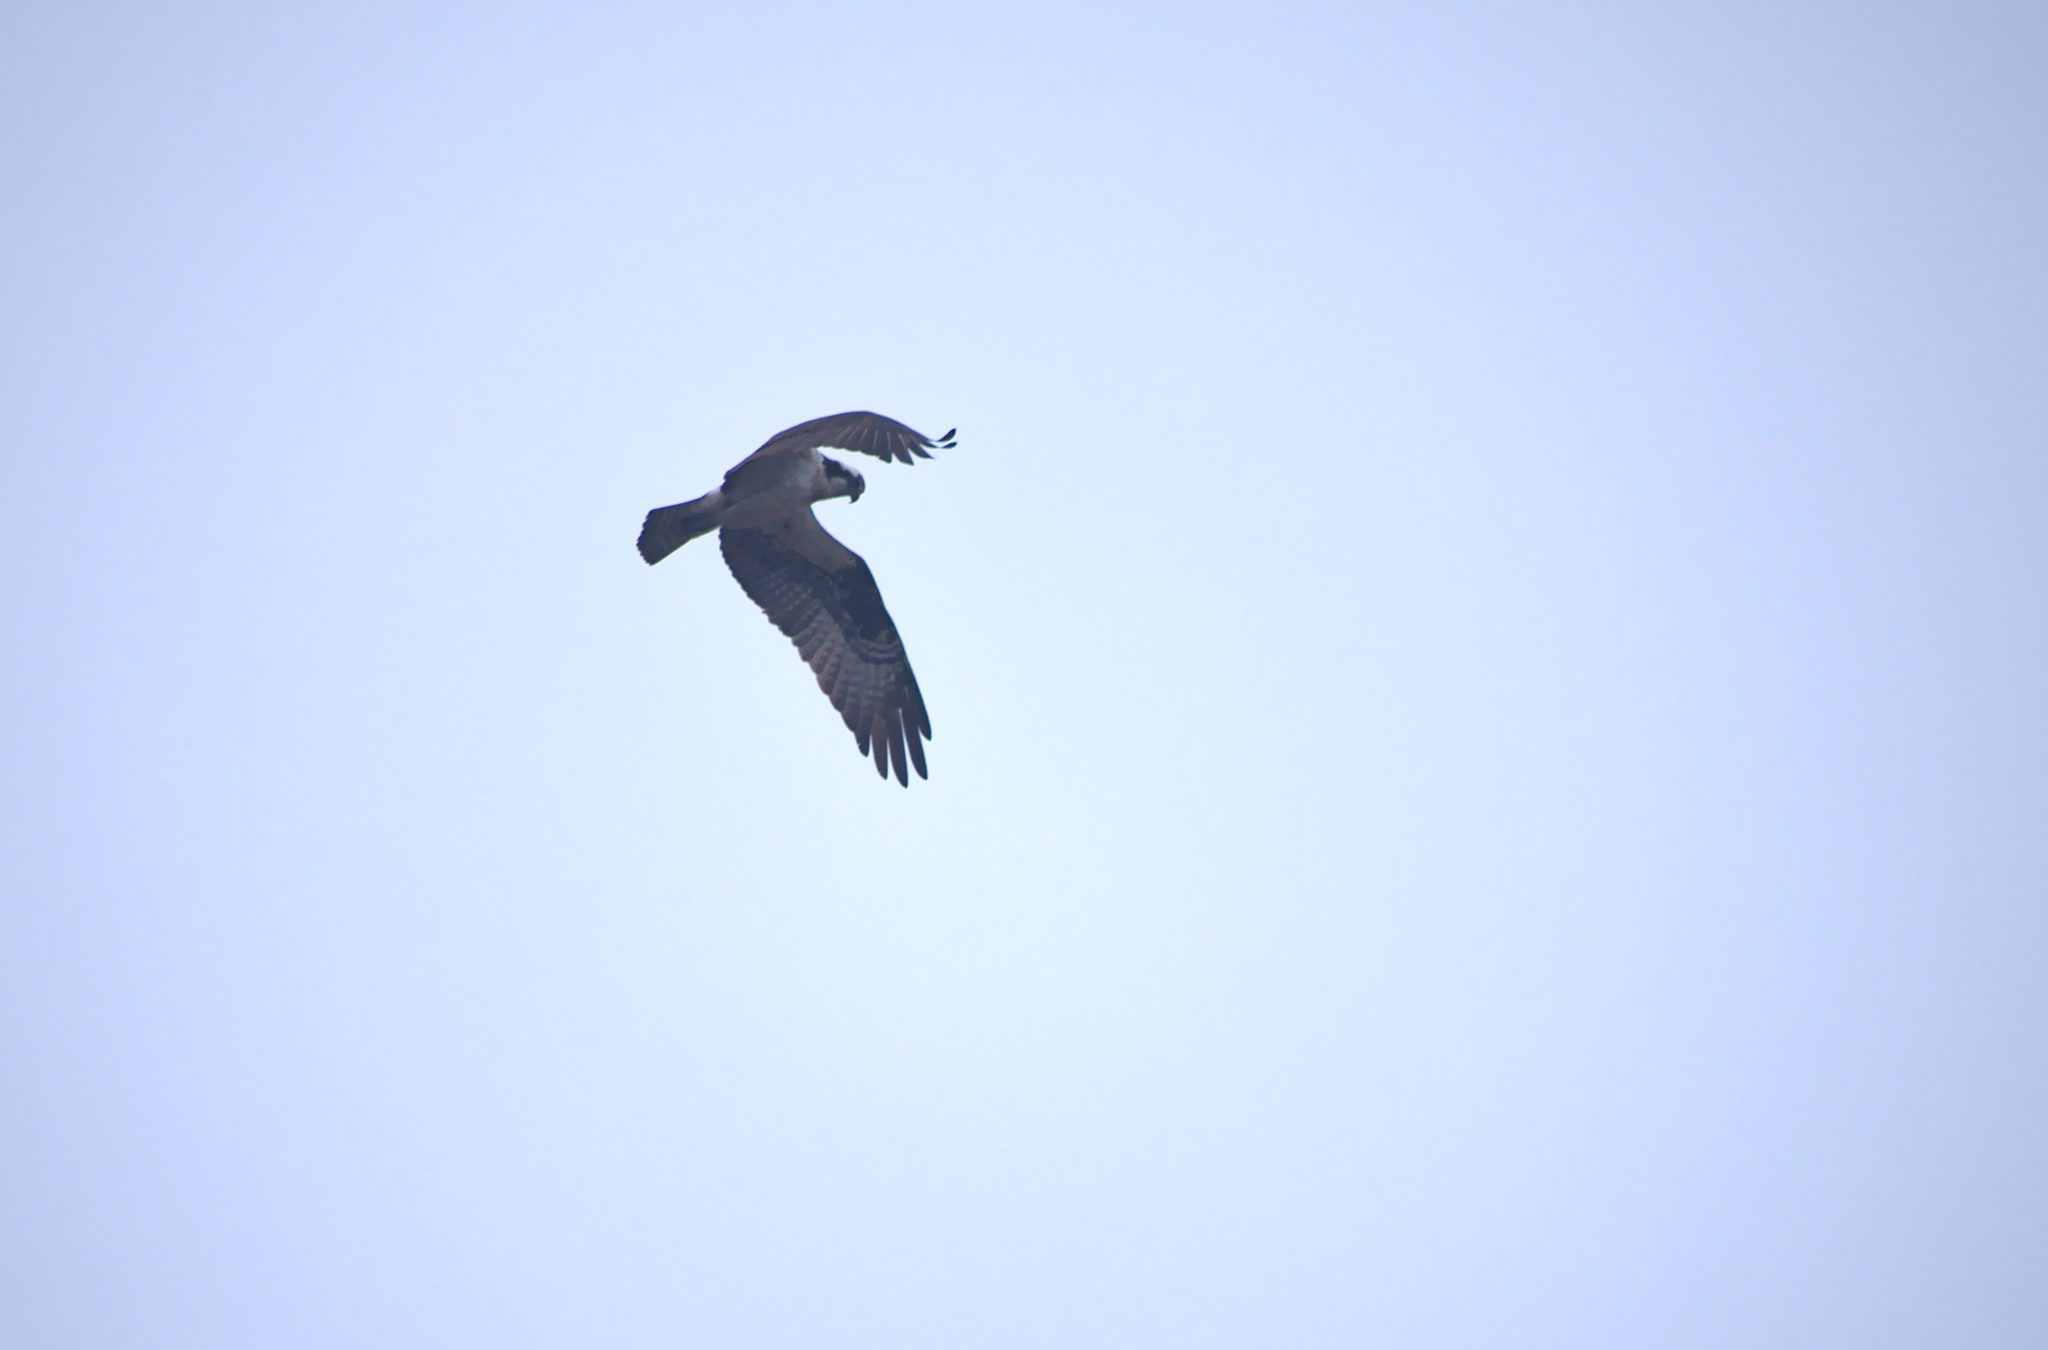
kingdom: Animalia
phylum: Chordata
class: Aves
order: Accipitriformes
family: Pandionidae
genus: Pandion
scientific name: Pandion haliaetus
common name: Osprey
